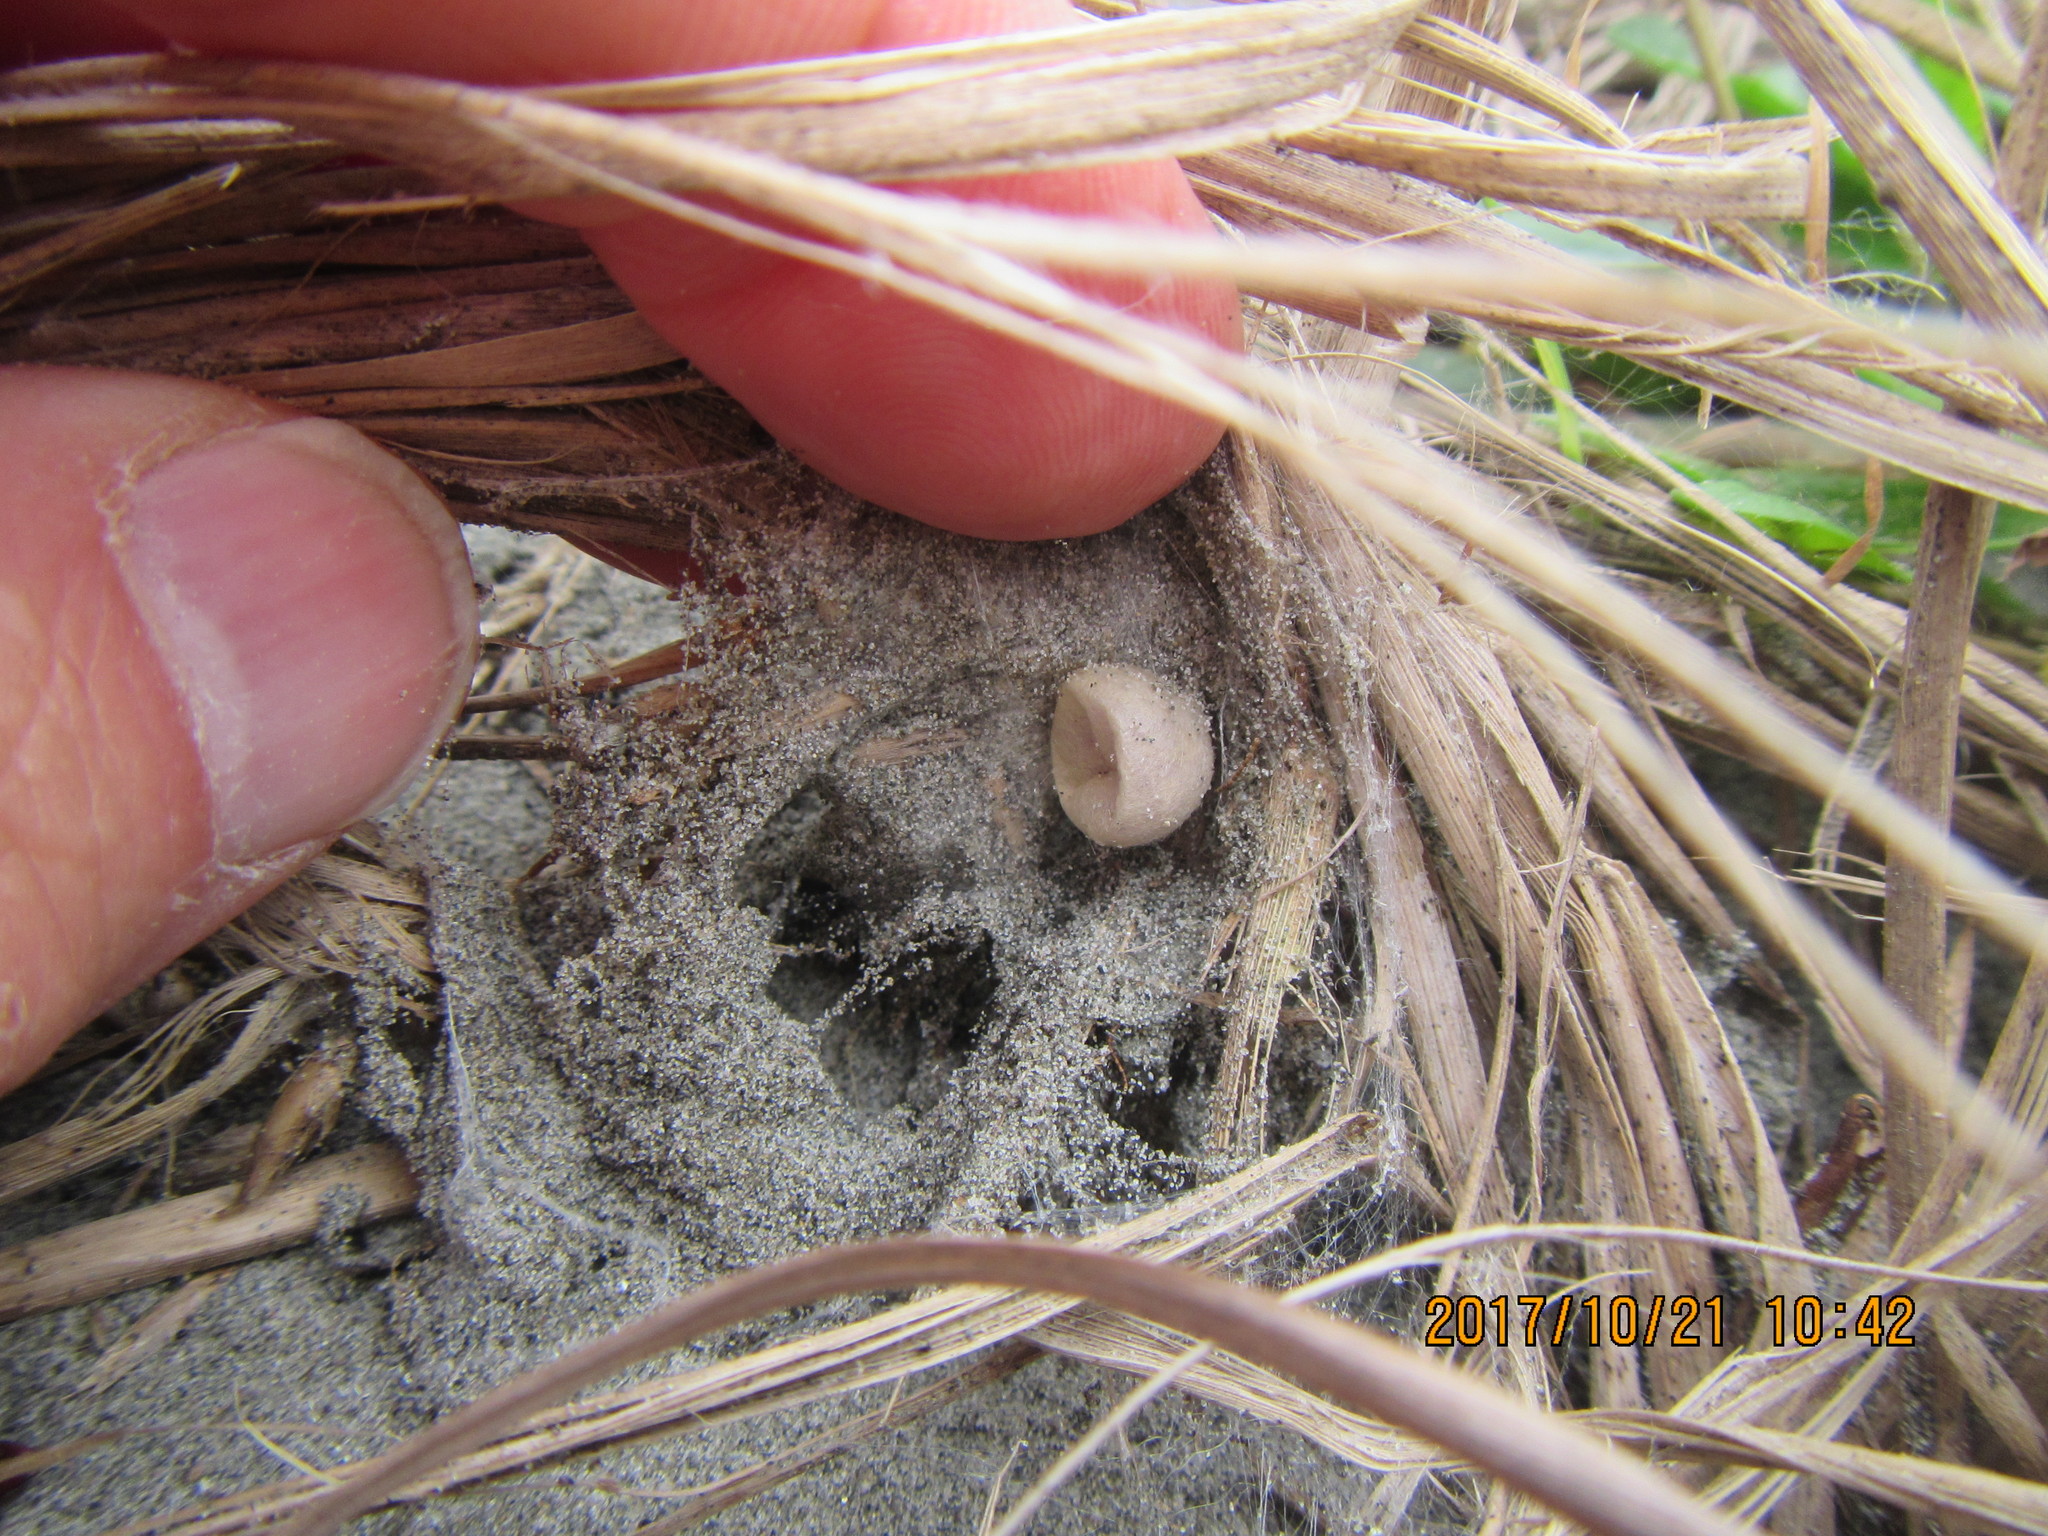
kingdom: Animalia
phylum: Arthropoda
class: Arachnida
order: Araneae
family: Porrhothelidae
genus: Porrhothele
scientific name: Porrhothele antipodiana
